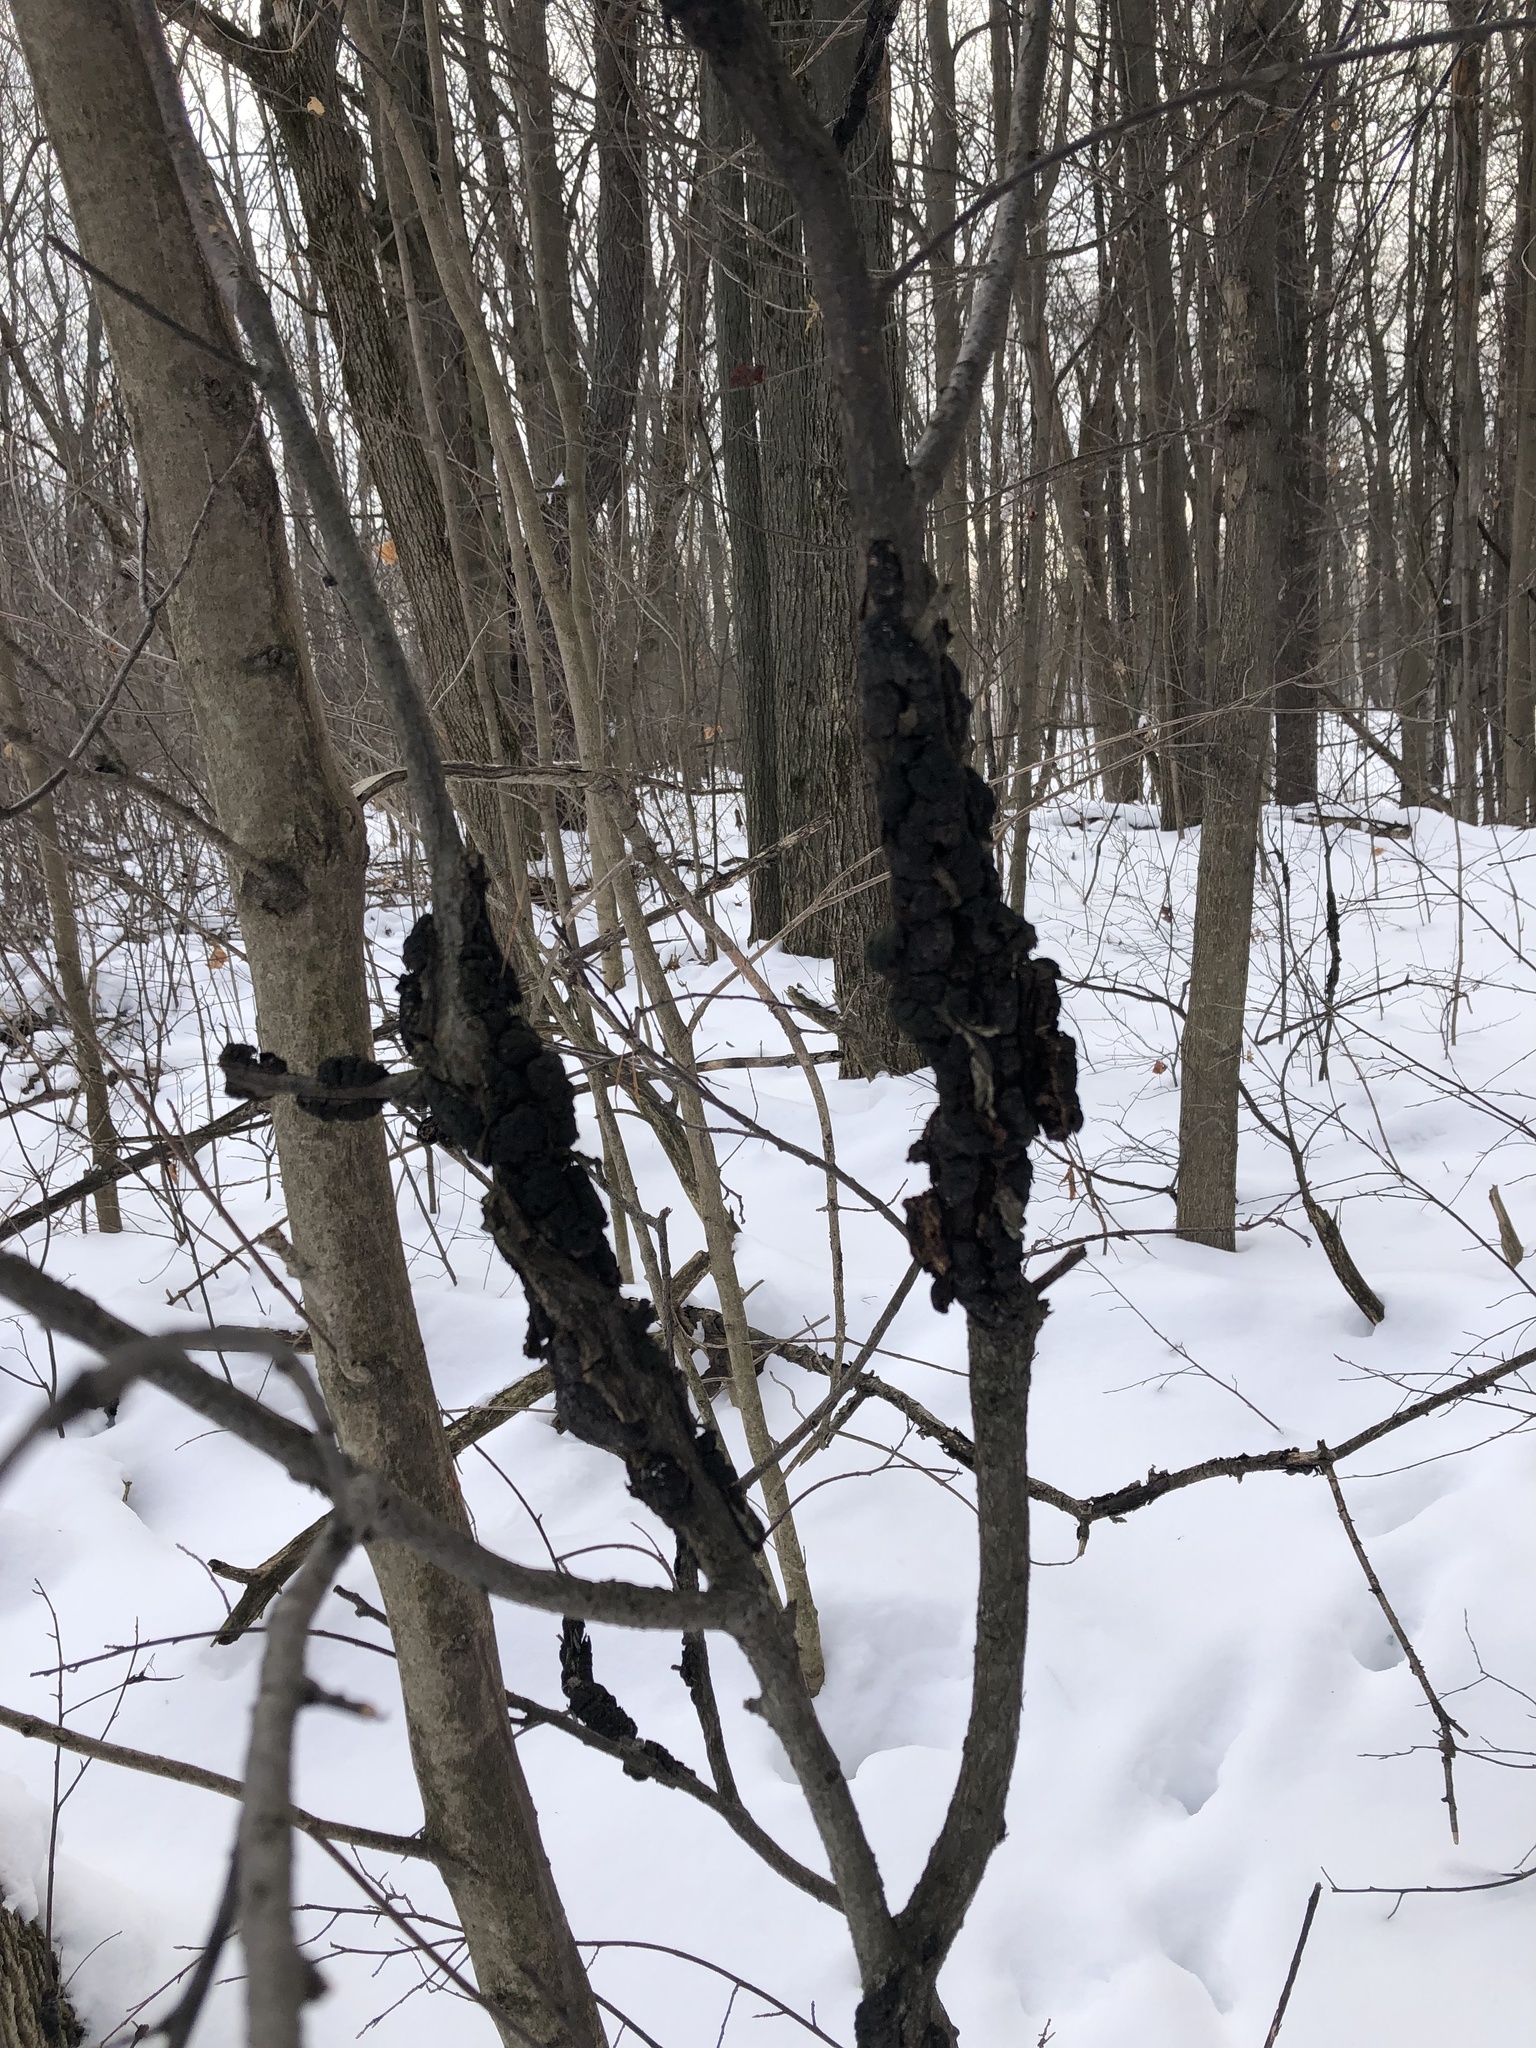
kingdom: Fungi
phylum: Ascomycota
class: Dothideomycetes
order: Venturiales
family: Venturiaceae
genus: Apiosporina
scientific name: Apiosporina morbosa
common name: Black knot
